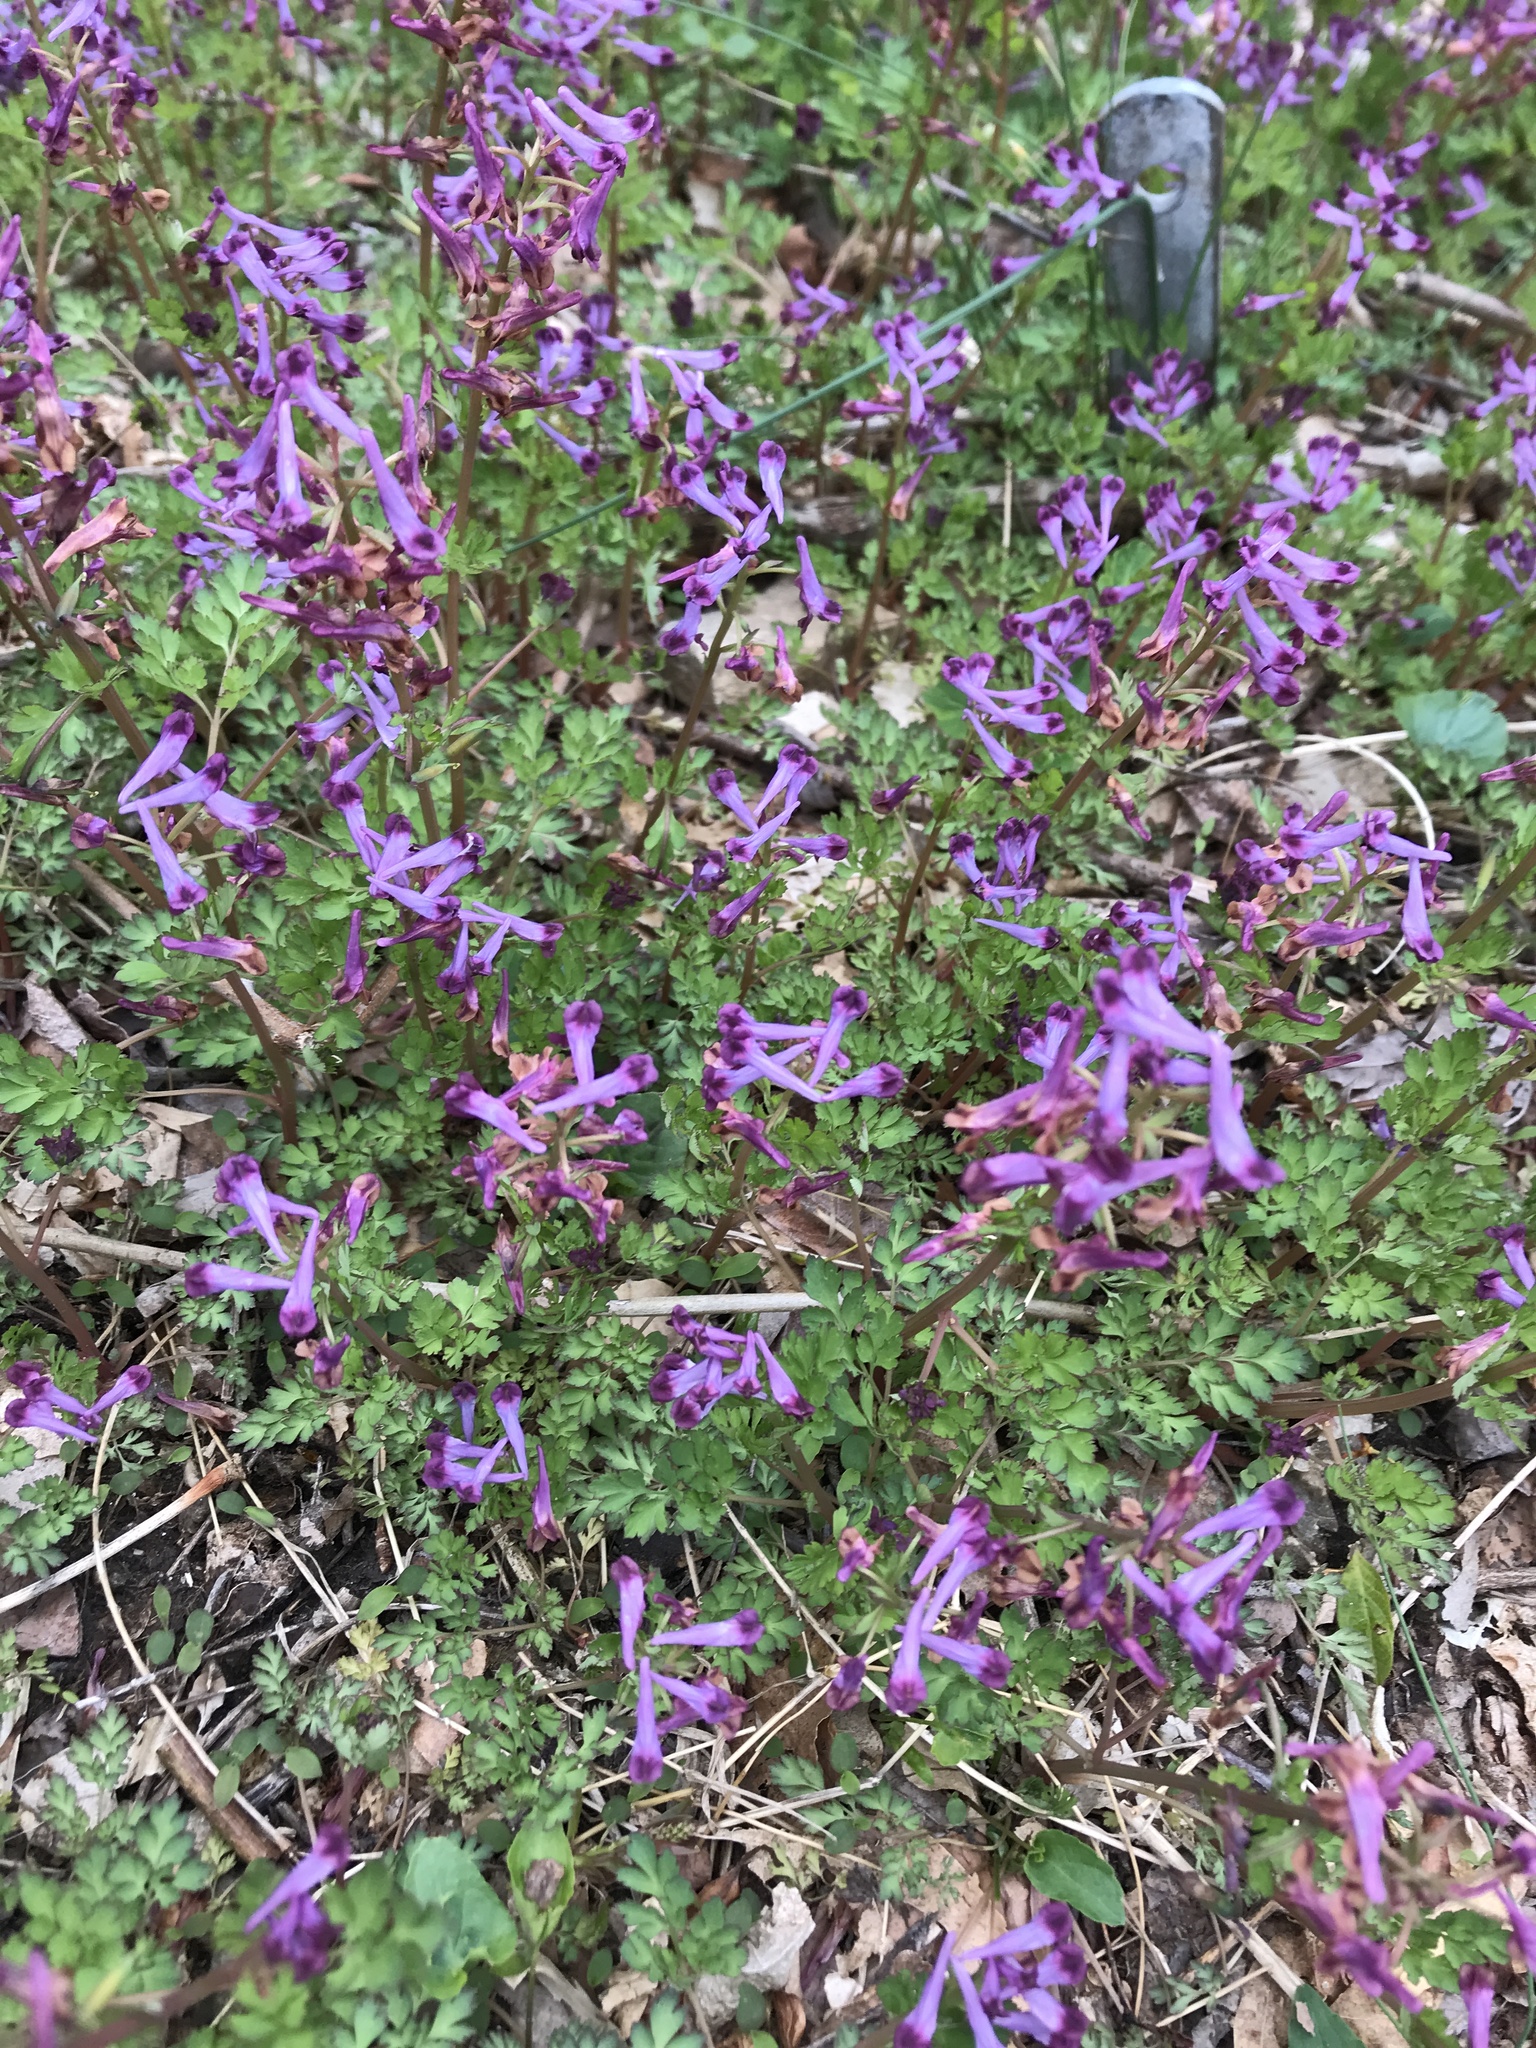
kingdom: Plantae
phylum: Tracheophyta
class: Magnoliopsida
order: Ranunculales
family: Papaveraceae
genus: Corydalis
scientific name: Corydalis incisa
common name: Incised fumewort
